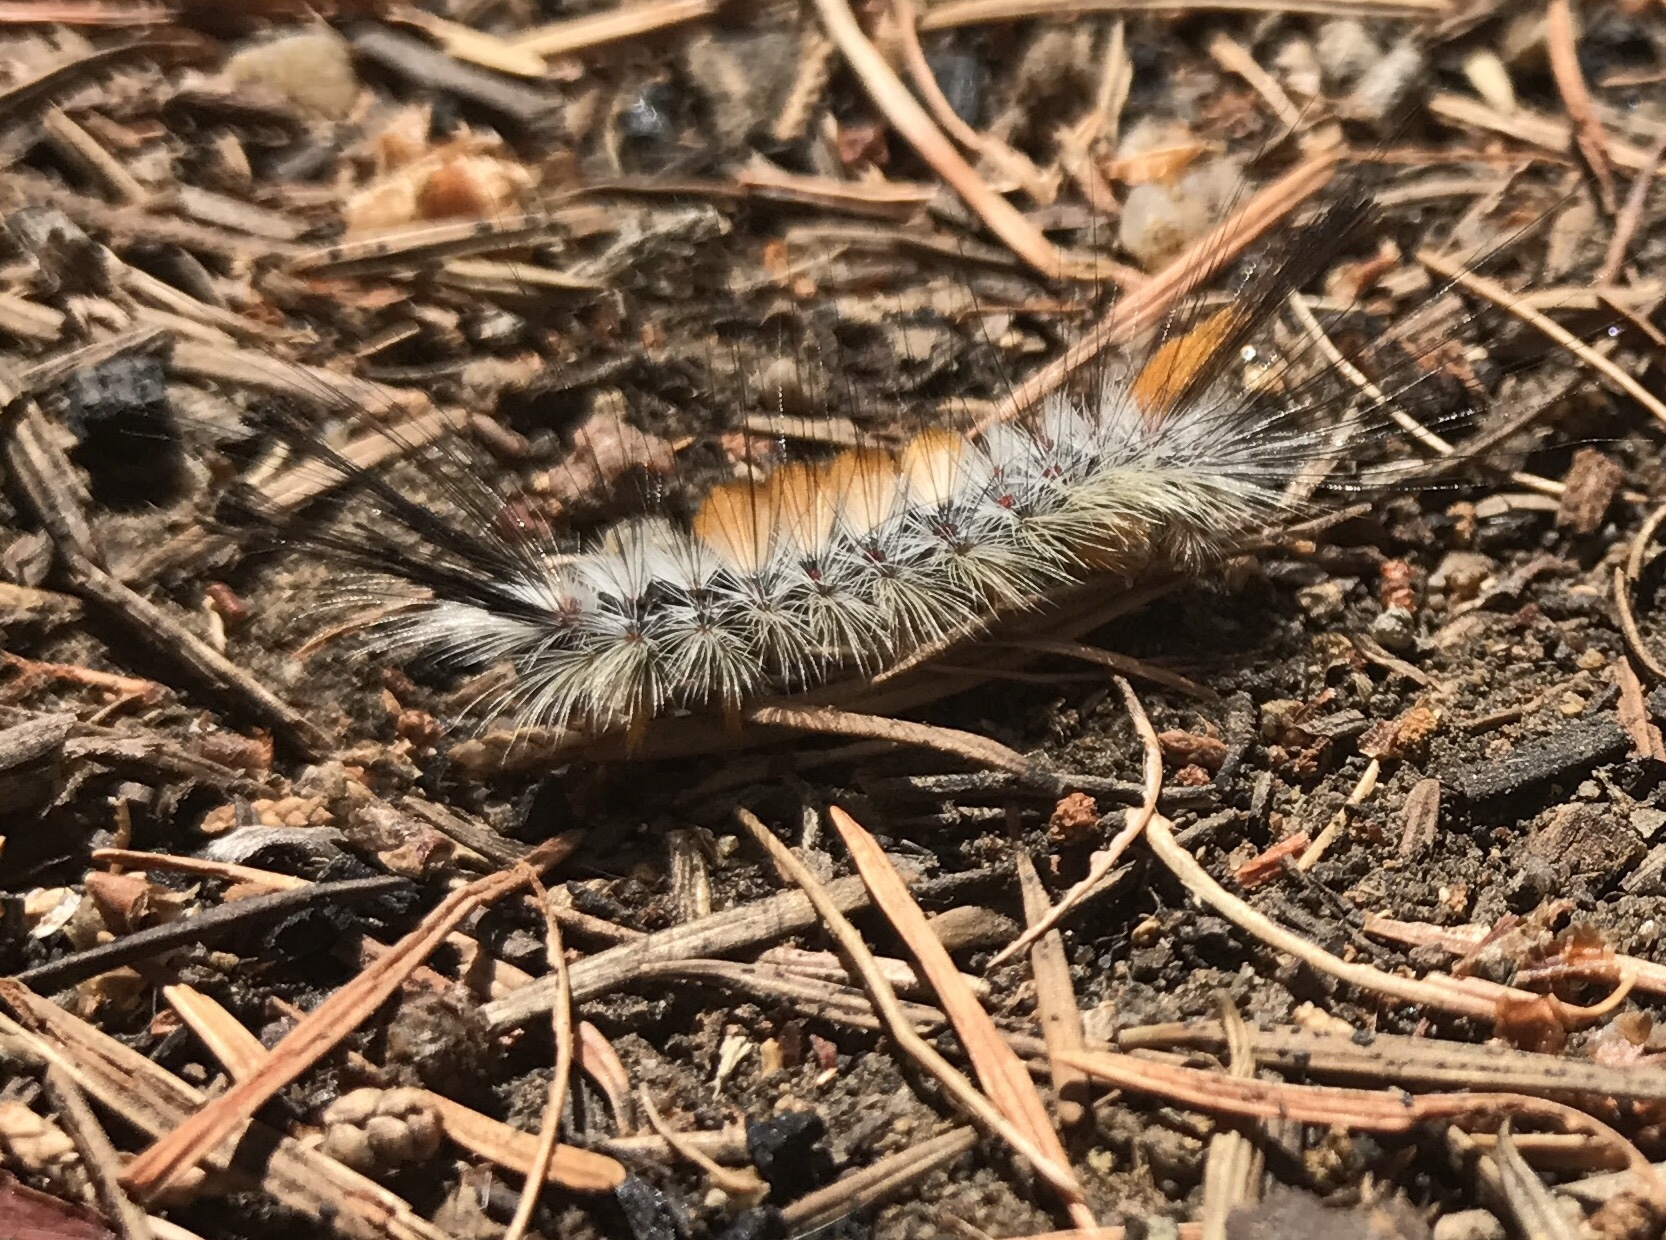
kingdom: Animalia
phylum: Arthropoda
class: Insecta
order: Lepidoptera
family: Erebidae
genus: Orgyia
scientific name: Orgyia pseudotsugata
